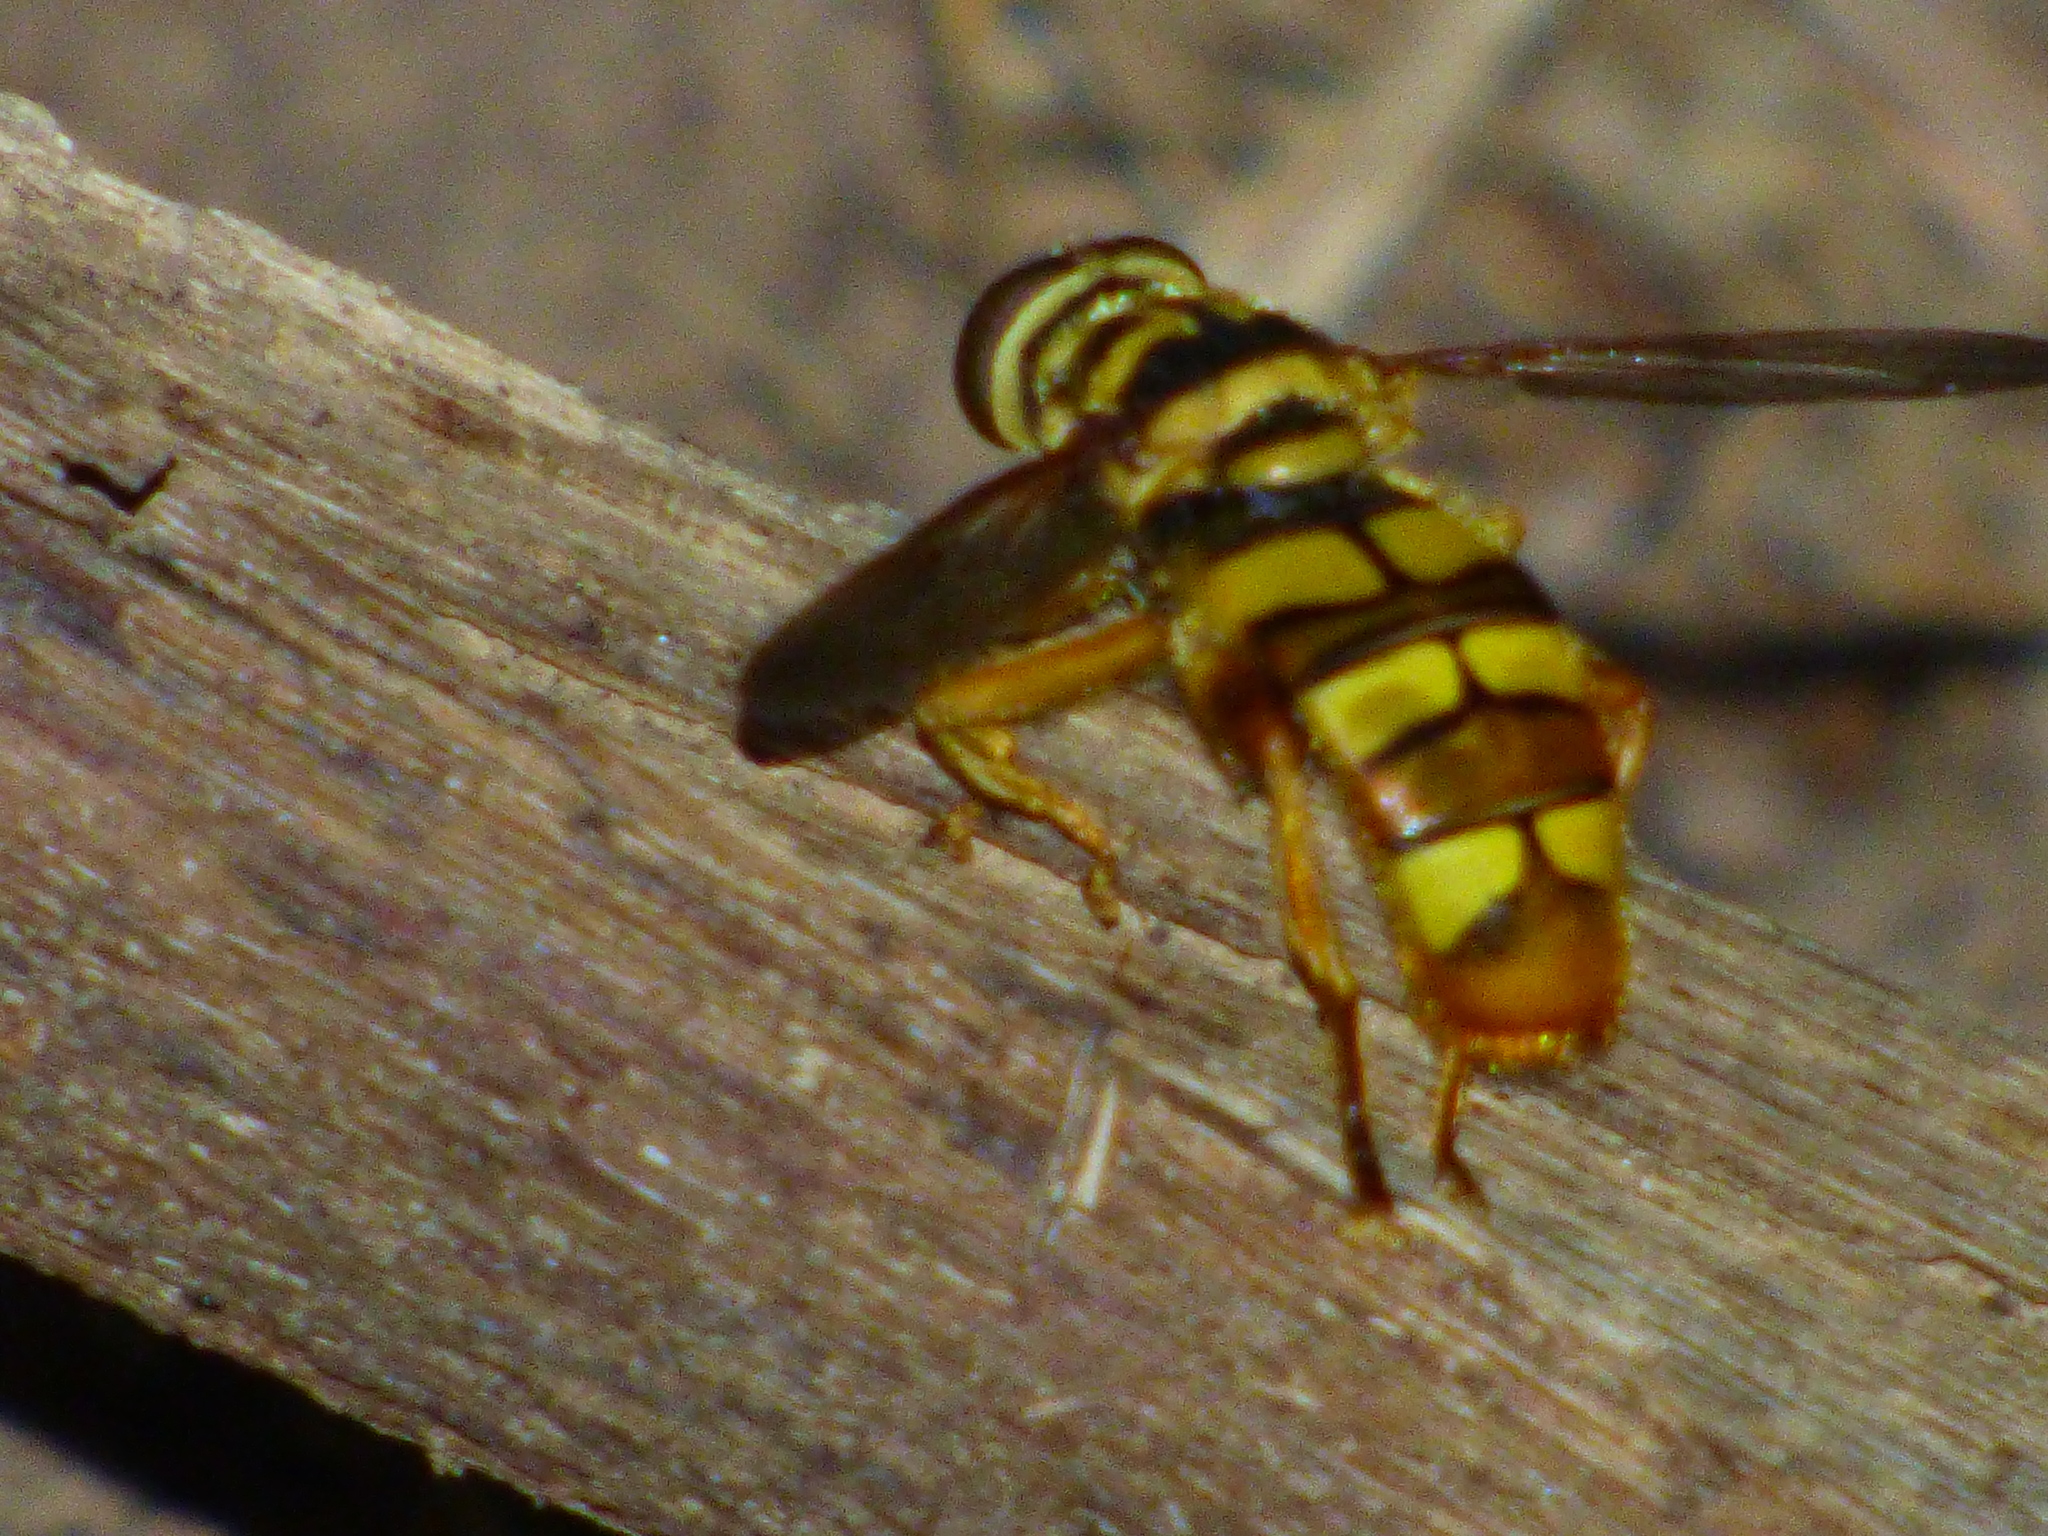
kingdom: Animalia
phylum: Arthropoda
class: Insecta
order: Diptera
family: Syrphidae
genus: Milesia
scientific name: Milesia virginiensis
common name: Virginia giant
